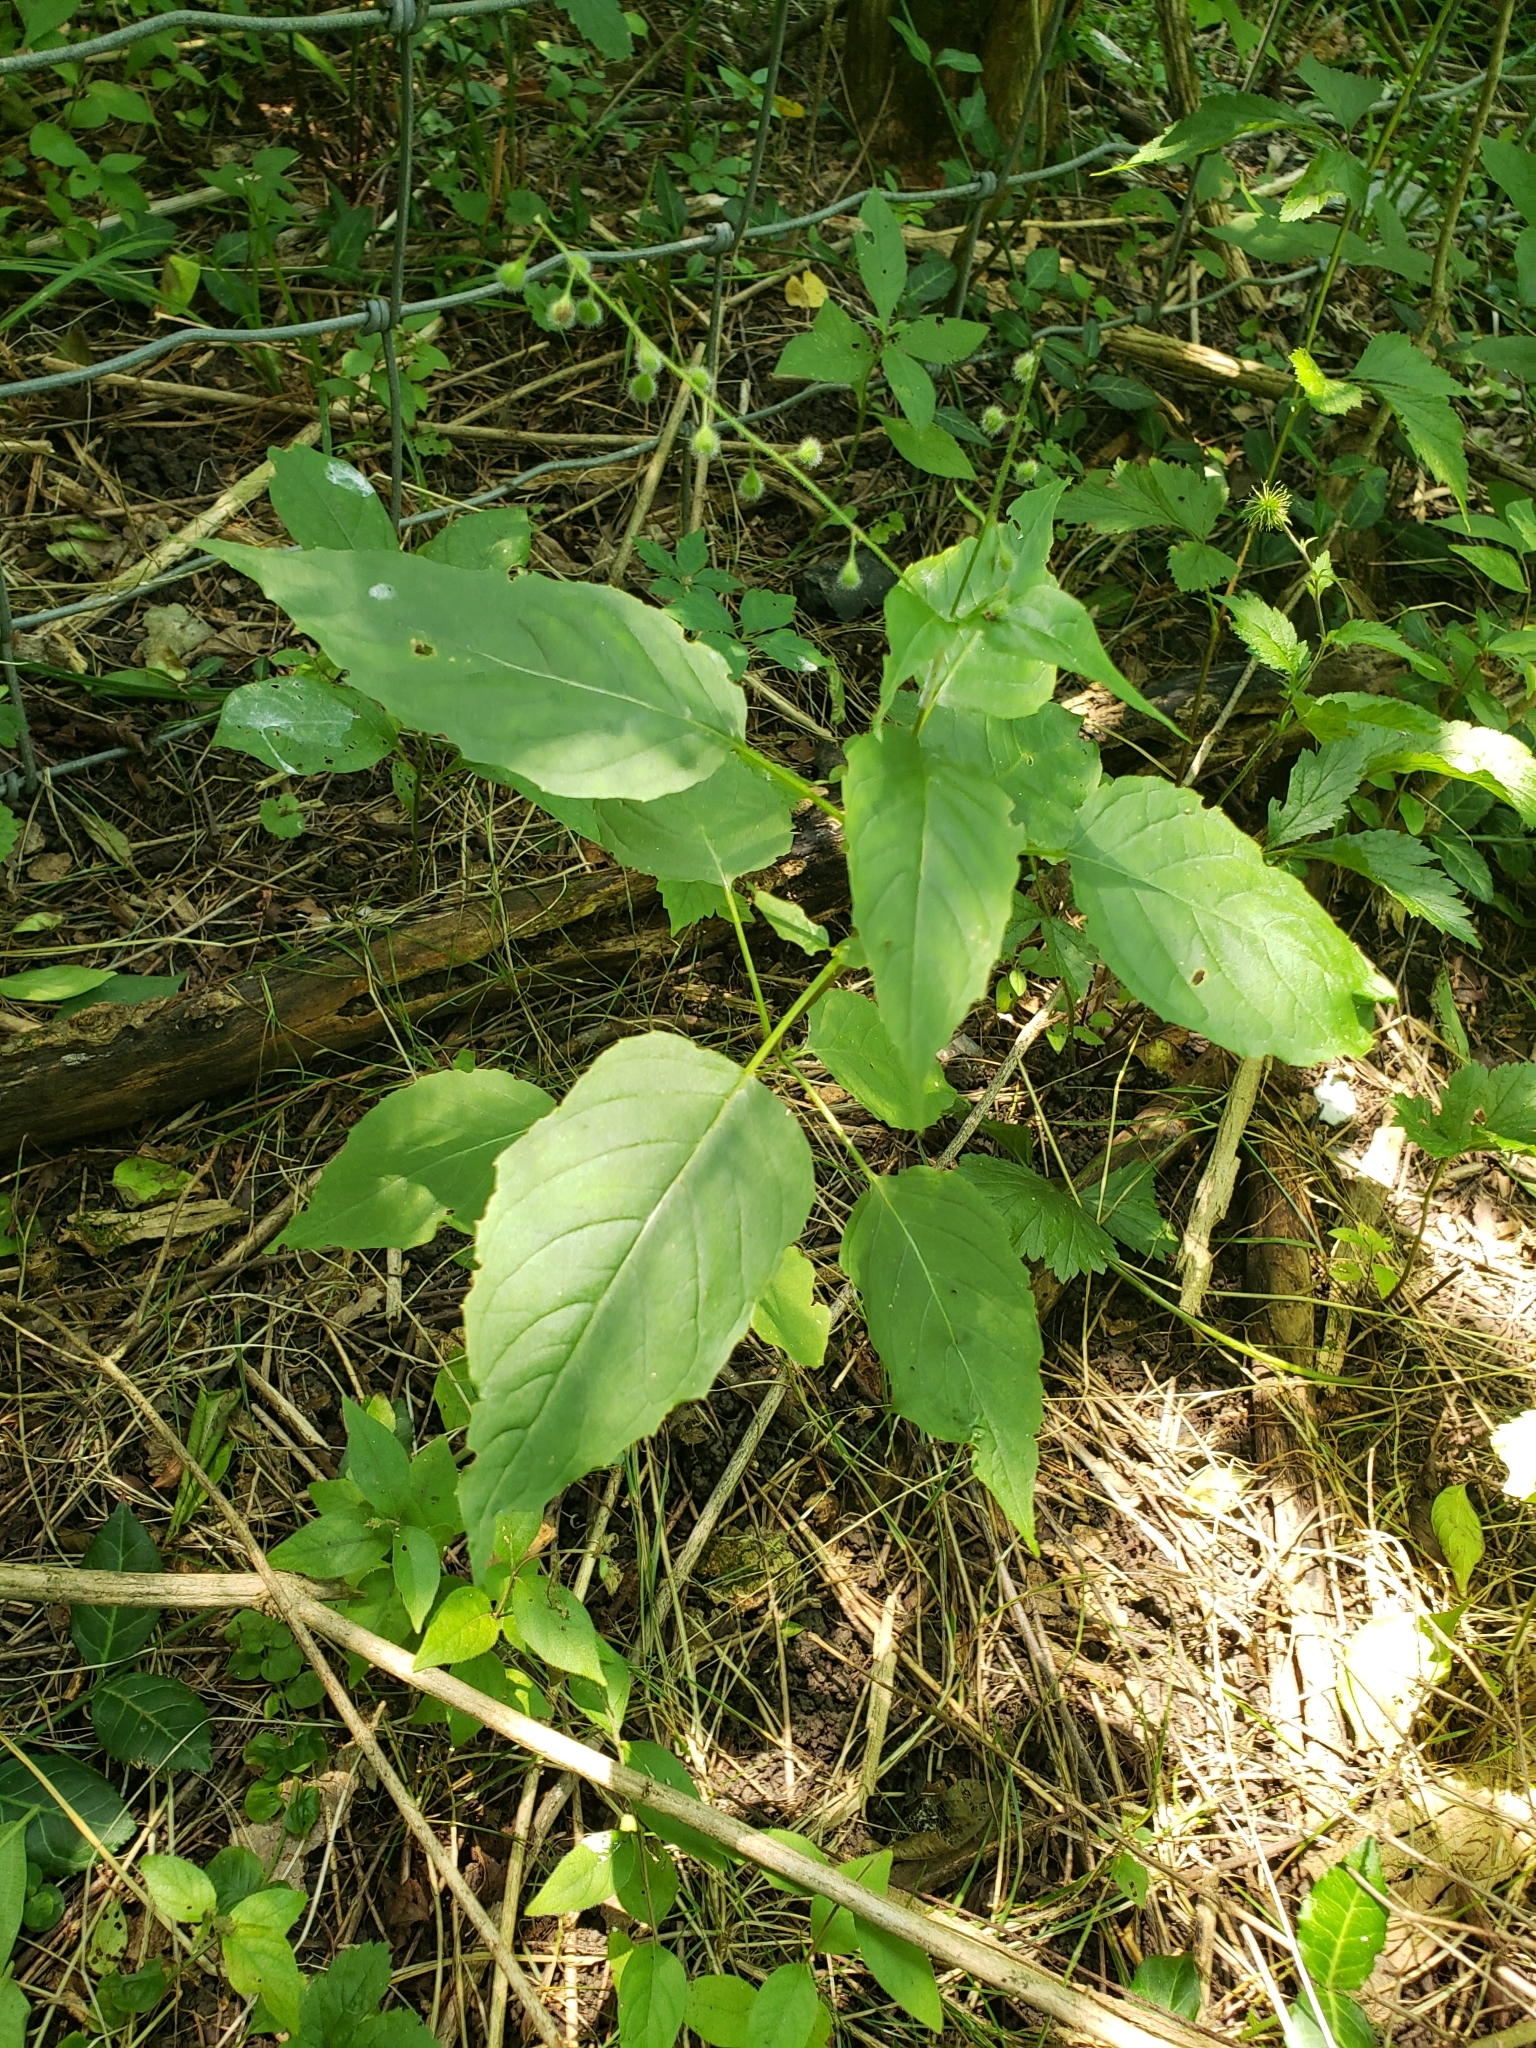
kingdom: Plantae
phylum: Tracheophyta
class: Magnoliopsida
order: Myrtales
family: Onagraceae
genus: Circaea
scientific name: Circaea canadensis
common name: Broad-leaved enchanter's nightshade
